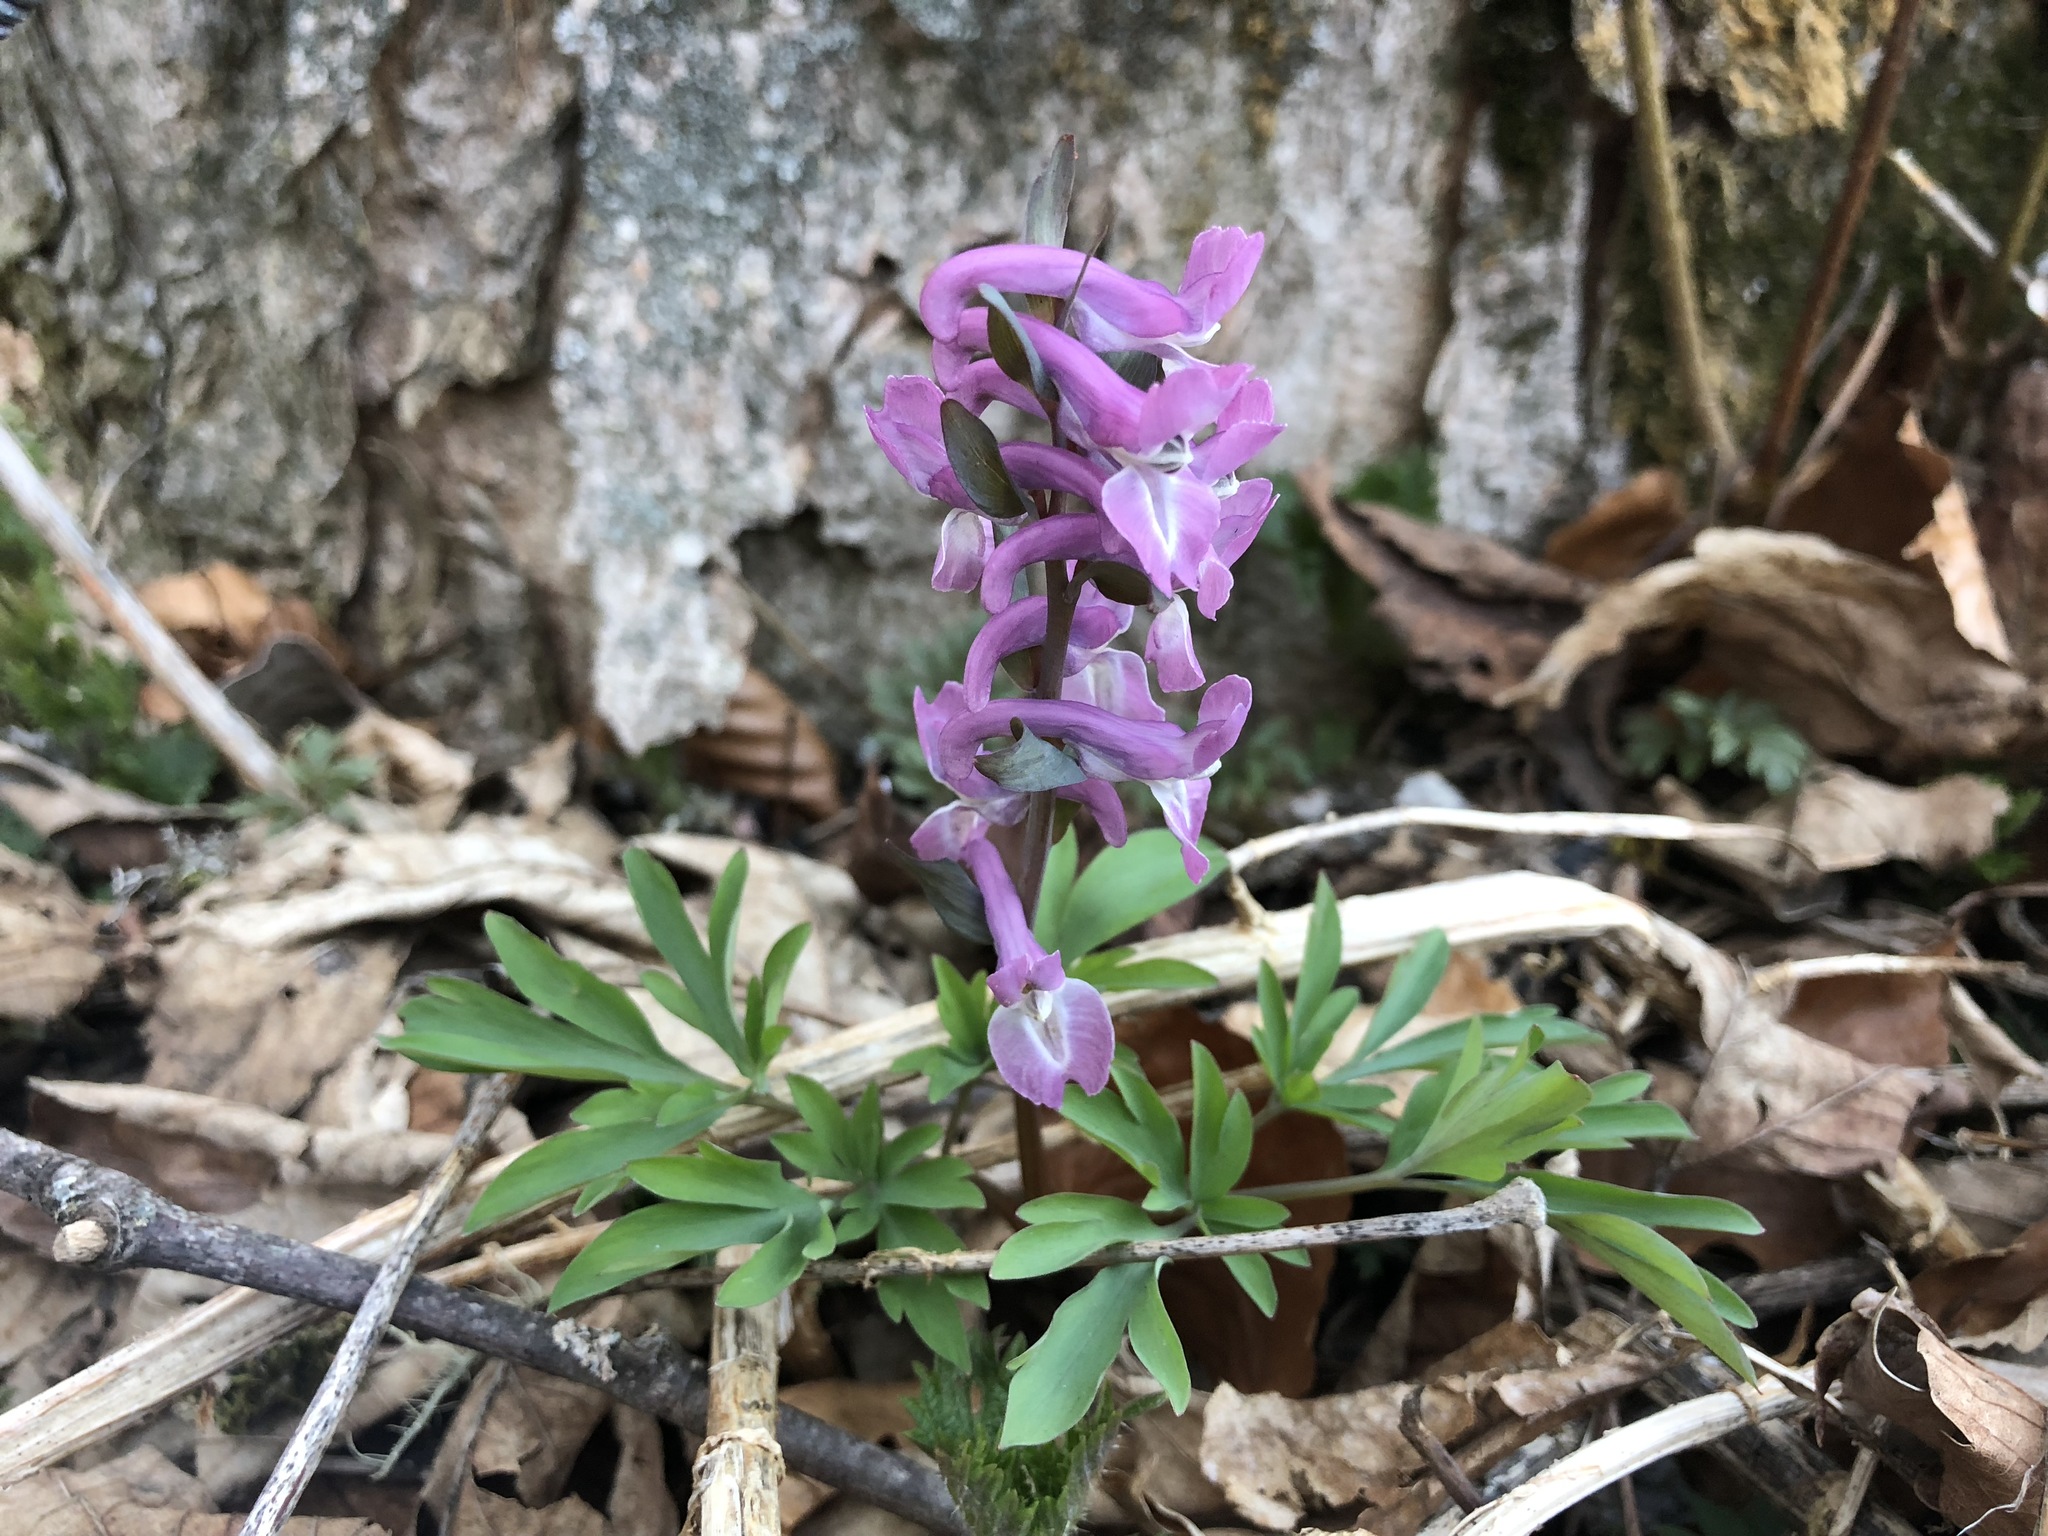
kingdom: Plantae
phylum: Tracheophyta
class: Magnoliopsida
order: Ranunculales
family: Papaveraceae
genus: Corydalis
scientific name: Corydalis cava
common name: Hollowroot
